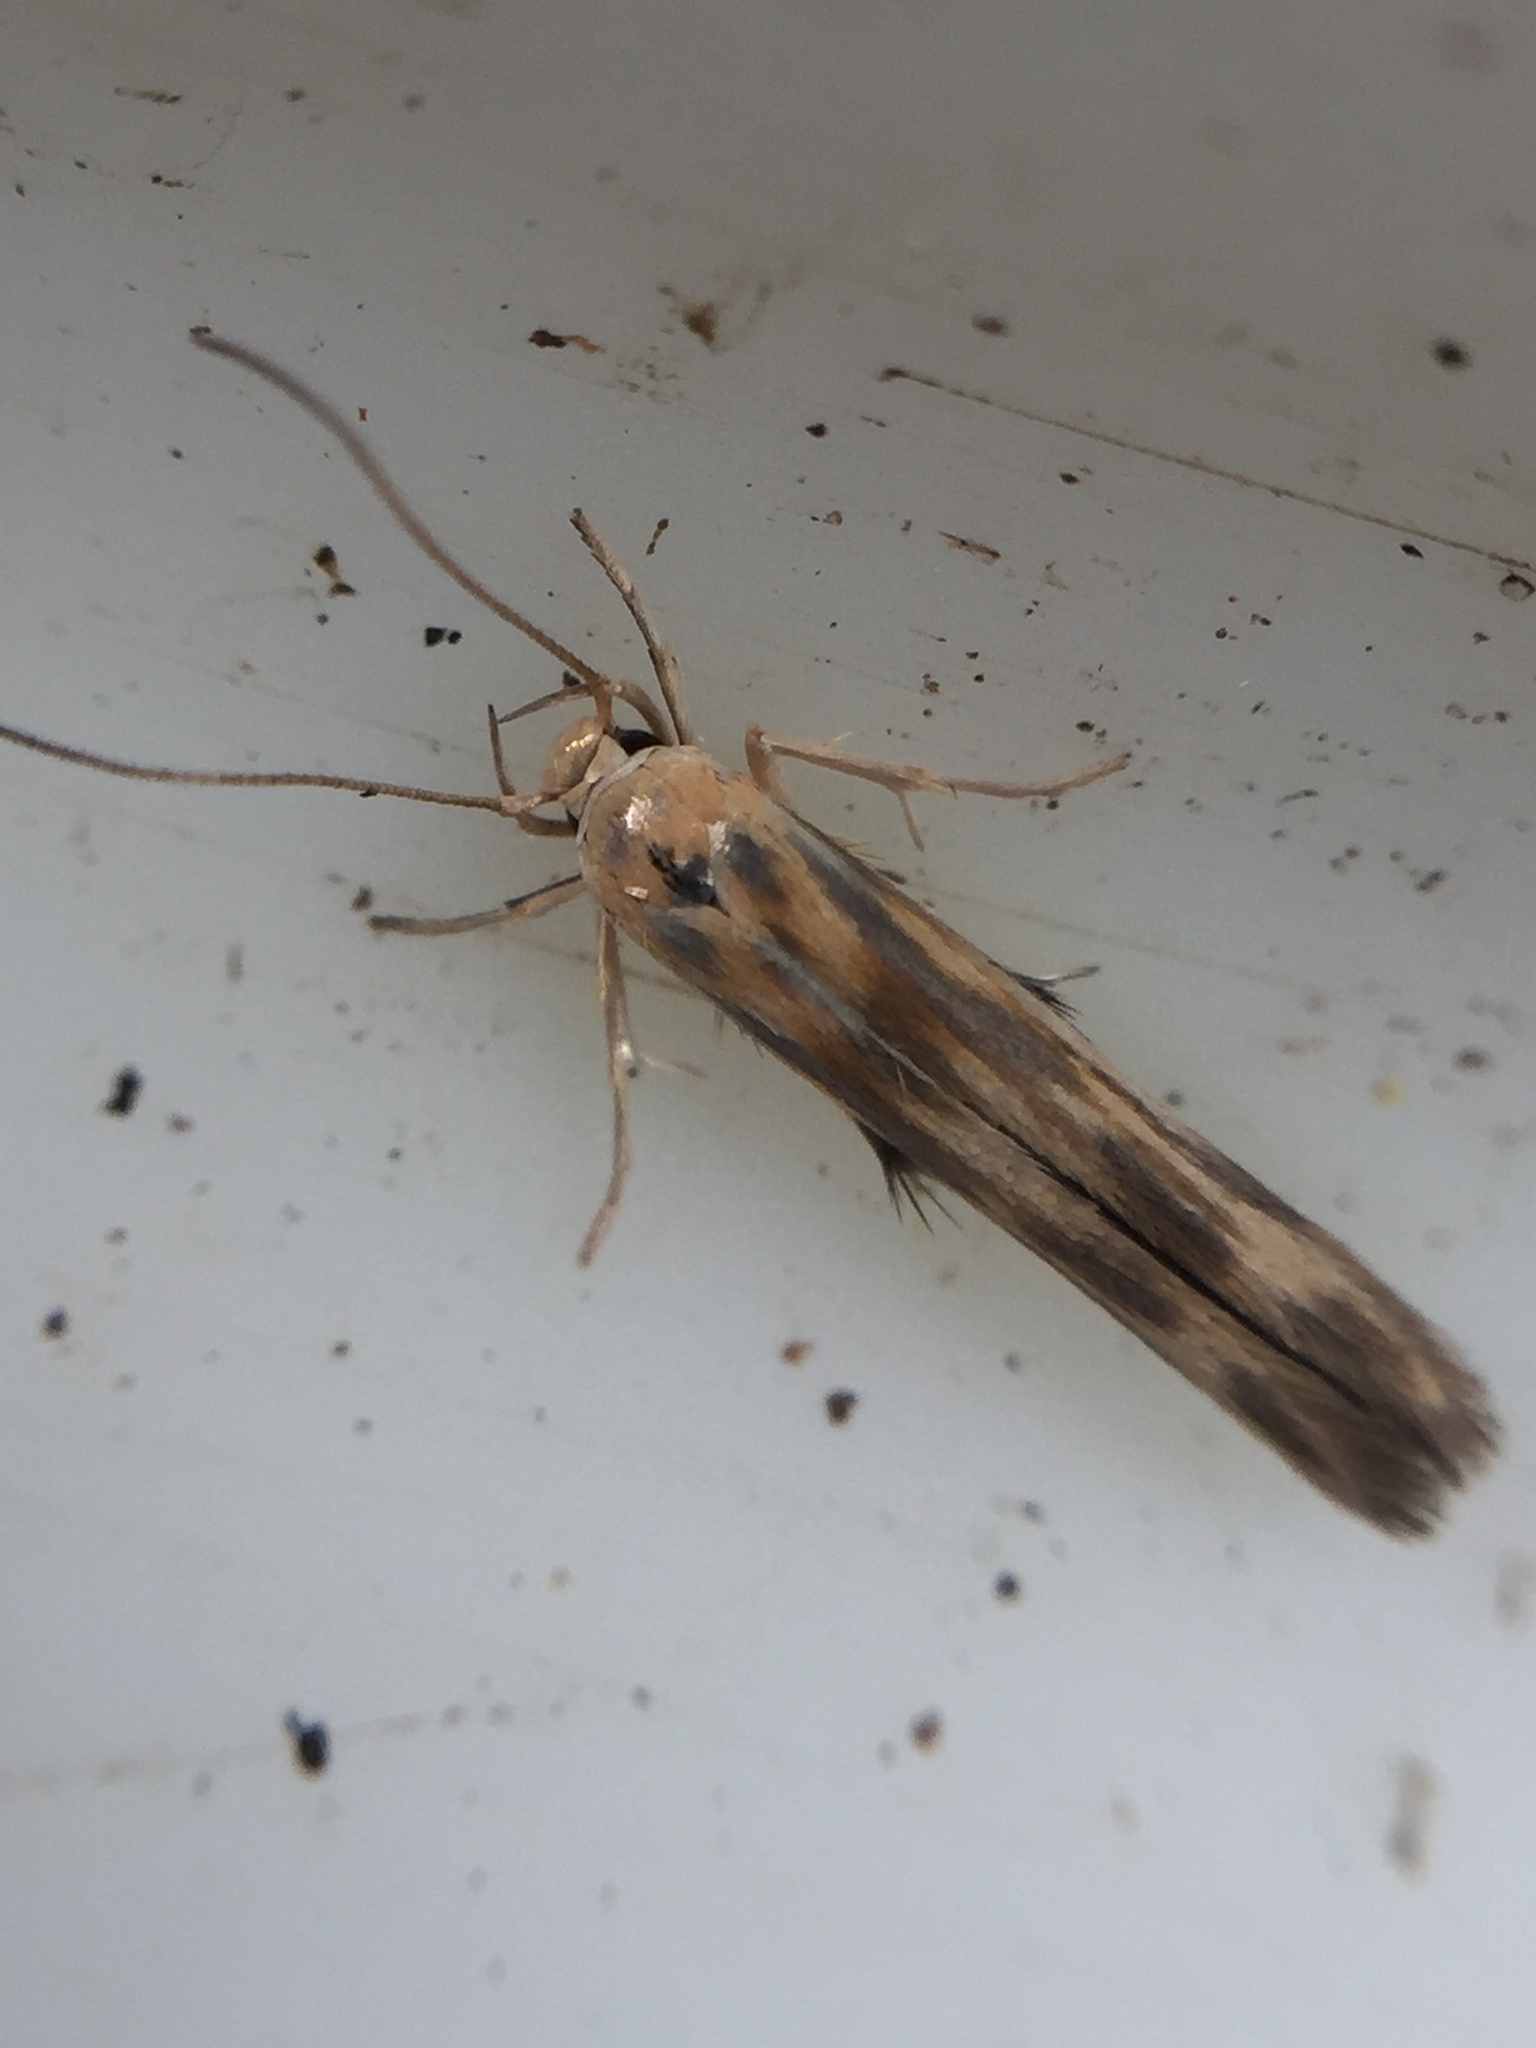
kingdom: Animalia
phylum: Arthropoda
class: Insecta
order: Lepidoptera
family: Stathmopodidae
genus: Stathmopoda
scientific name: Stathmopoda horticola
